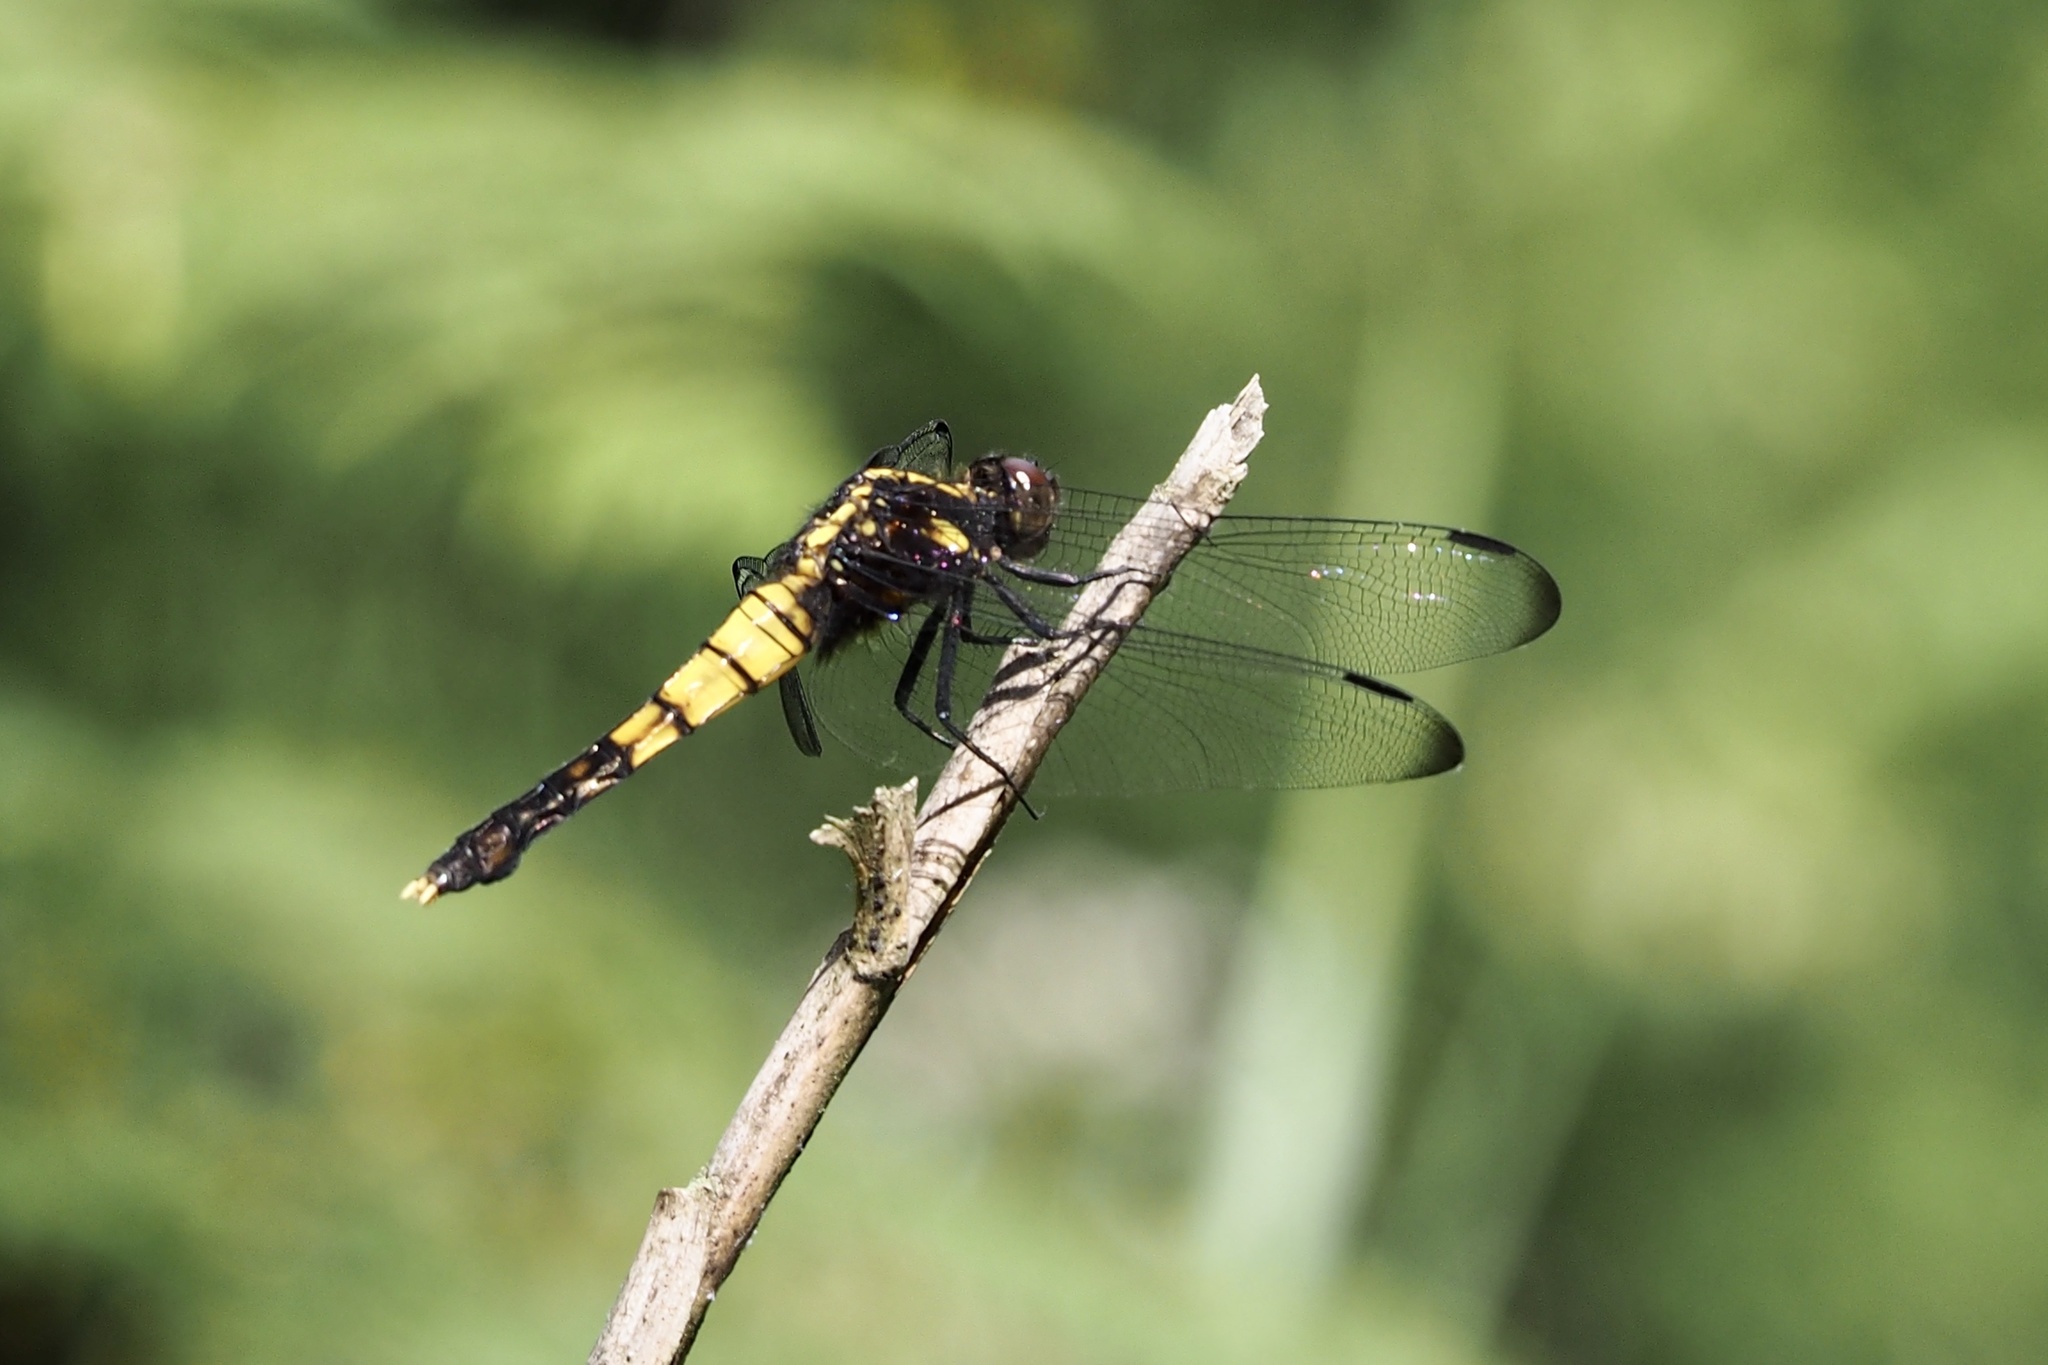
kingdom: Animalia
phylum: Arthropoda
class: Insecta
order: Odonata
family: Libellulidae
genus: Orthetrum
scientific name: Orthetrum melania
